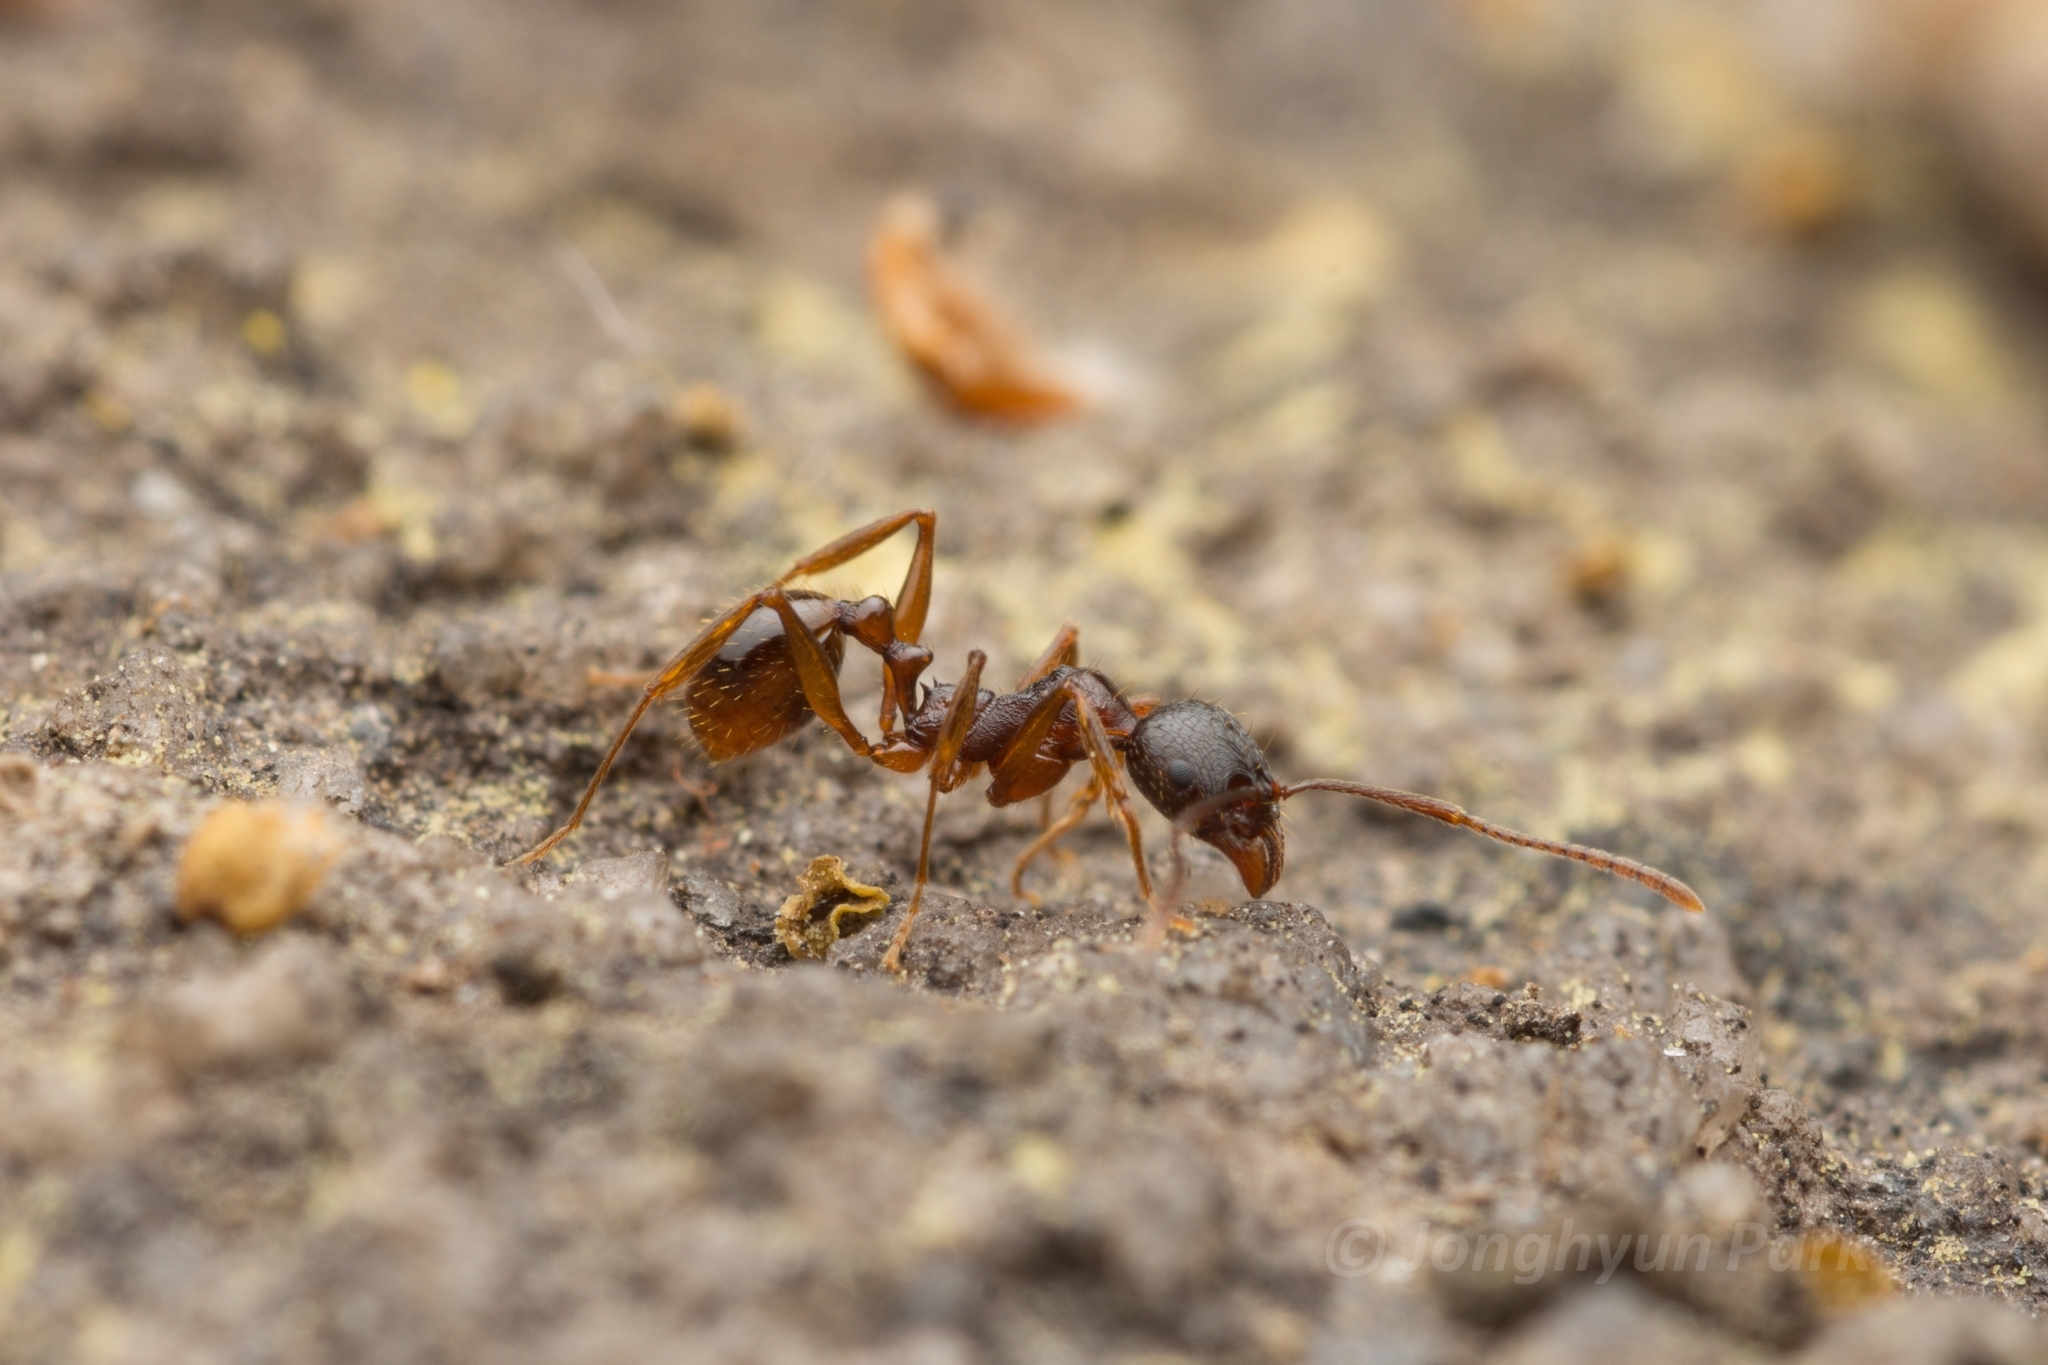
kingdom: Animalia
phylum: Arthropoda
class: Insecta
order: Hymenoptera
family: Formicidae
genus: Aphaenogaster
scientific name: Aphaenogaster japonica
